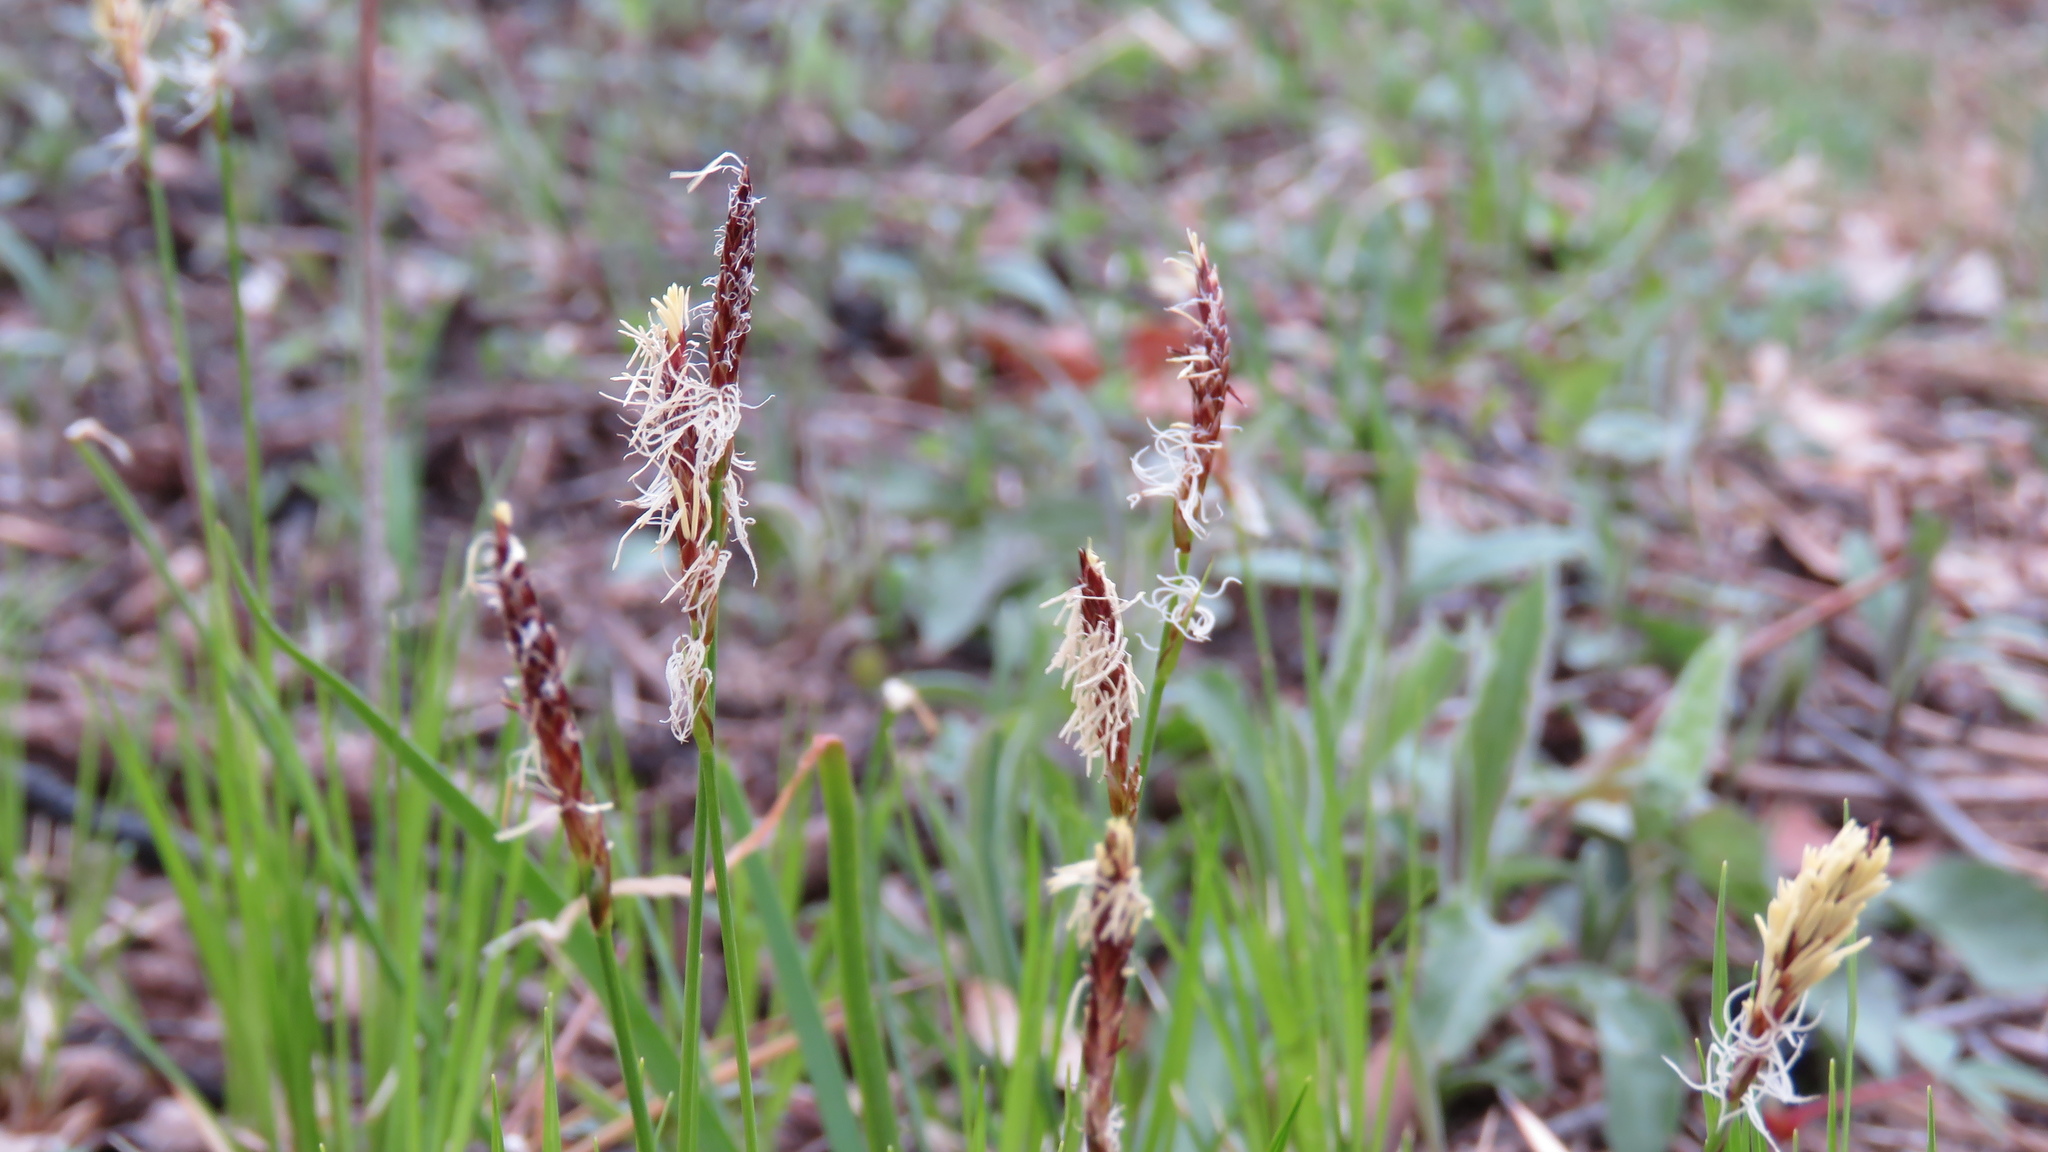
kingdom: Plantae
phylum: Tracheophyta
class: Liliopsida
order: Poales
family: Cyperaceae
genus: Carex
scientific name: Carex pensylvanica
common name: Common oak sedge
